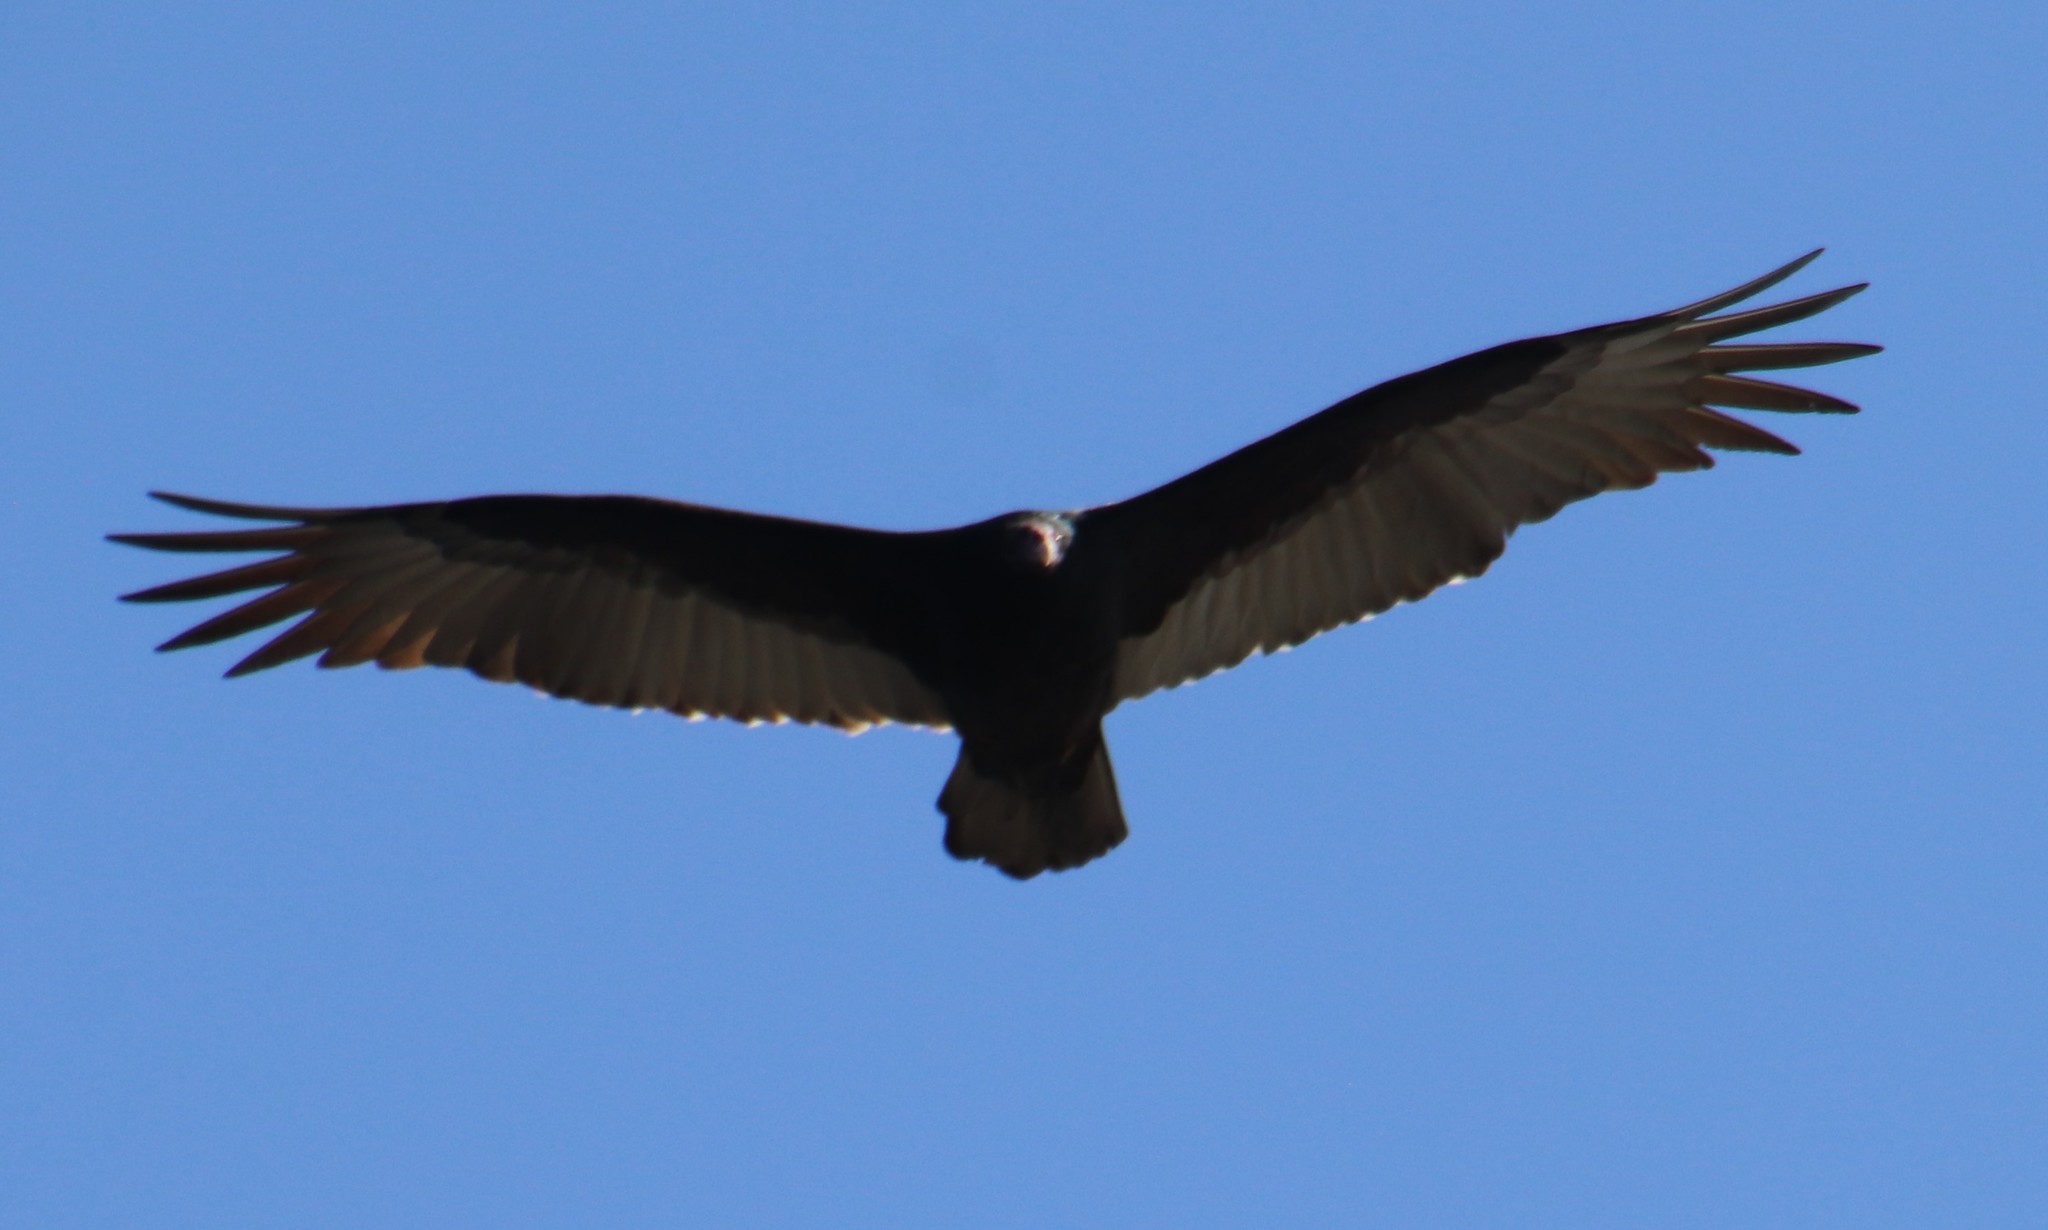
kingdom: Animalia
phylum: Chordata
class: Aves
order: Accipitriformes
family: Cathartidae
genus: Cathartes
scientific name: Cathartes aura
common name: Turkey vulture
